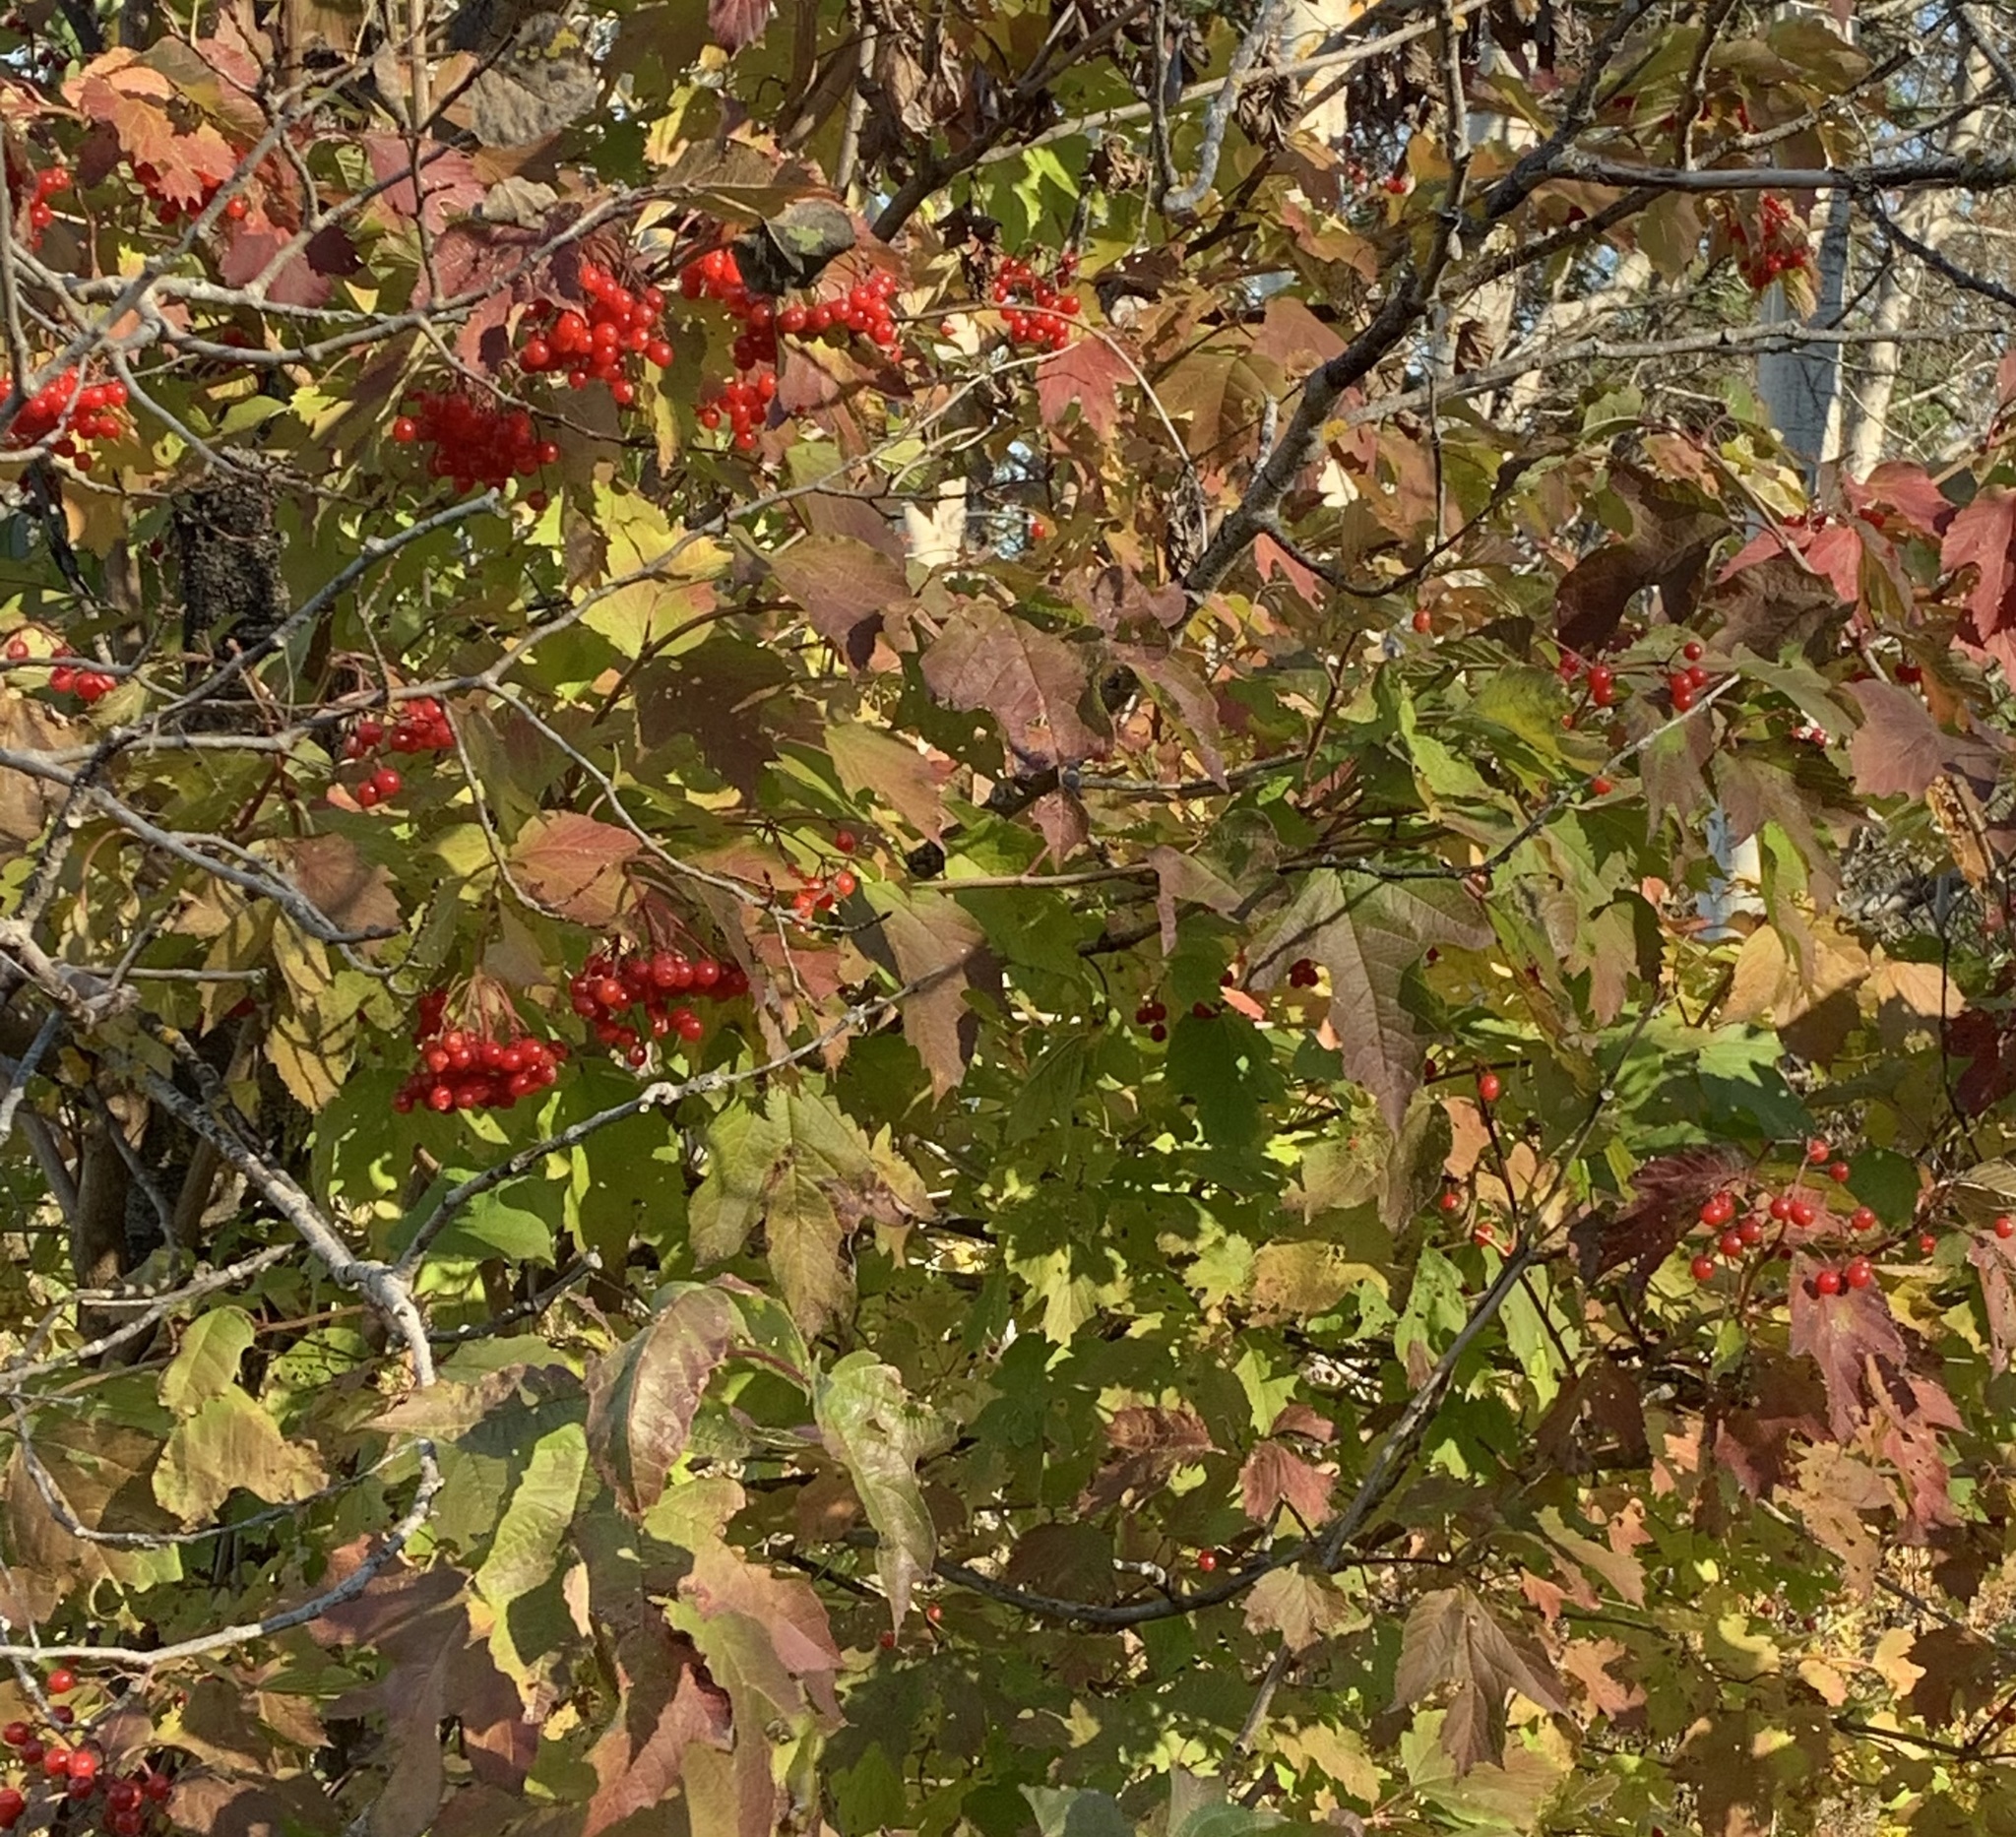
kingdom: Plantae
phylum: Tracheophyta
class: Magnoliopsida
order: Dipsacales
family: Viburnaceae
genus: Viburnum
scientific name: Viburnum opulus
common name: Guelder-rose
